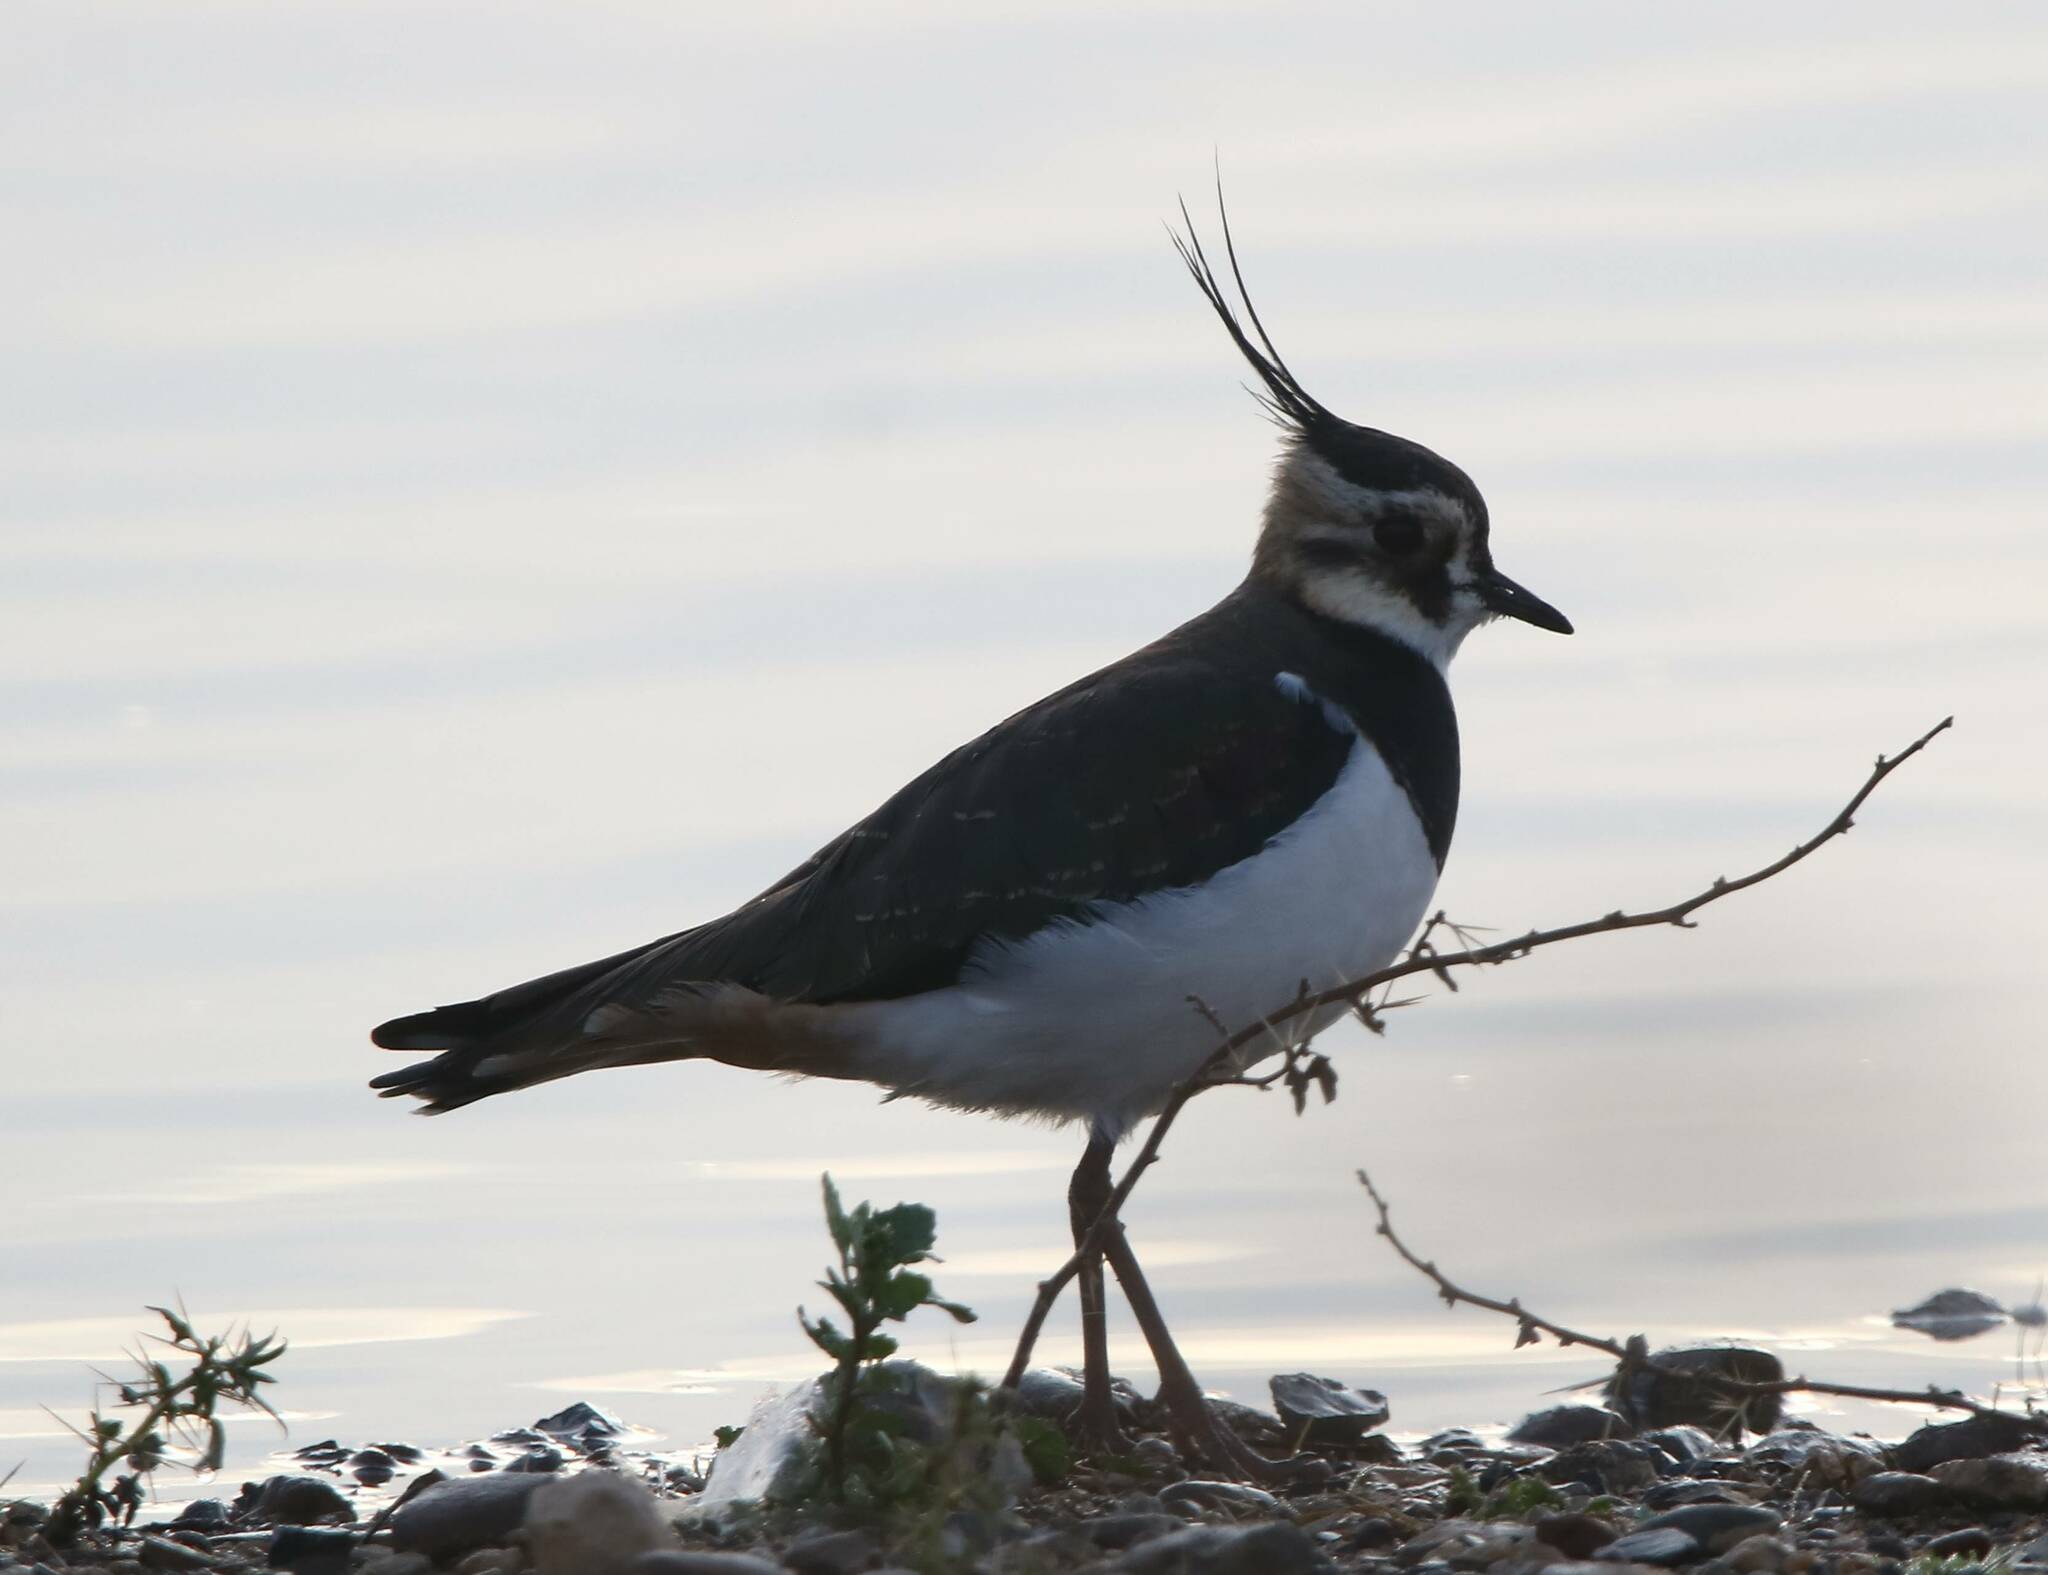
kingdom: Animalia
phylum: Chordata
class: Aves
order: Charadriiformes
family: Charadriidae
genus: Vanellus
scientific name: Vanellus vanellus
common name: Northern lapwing
